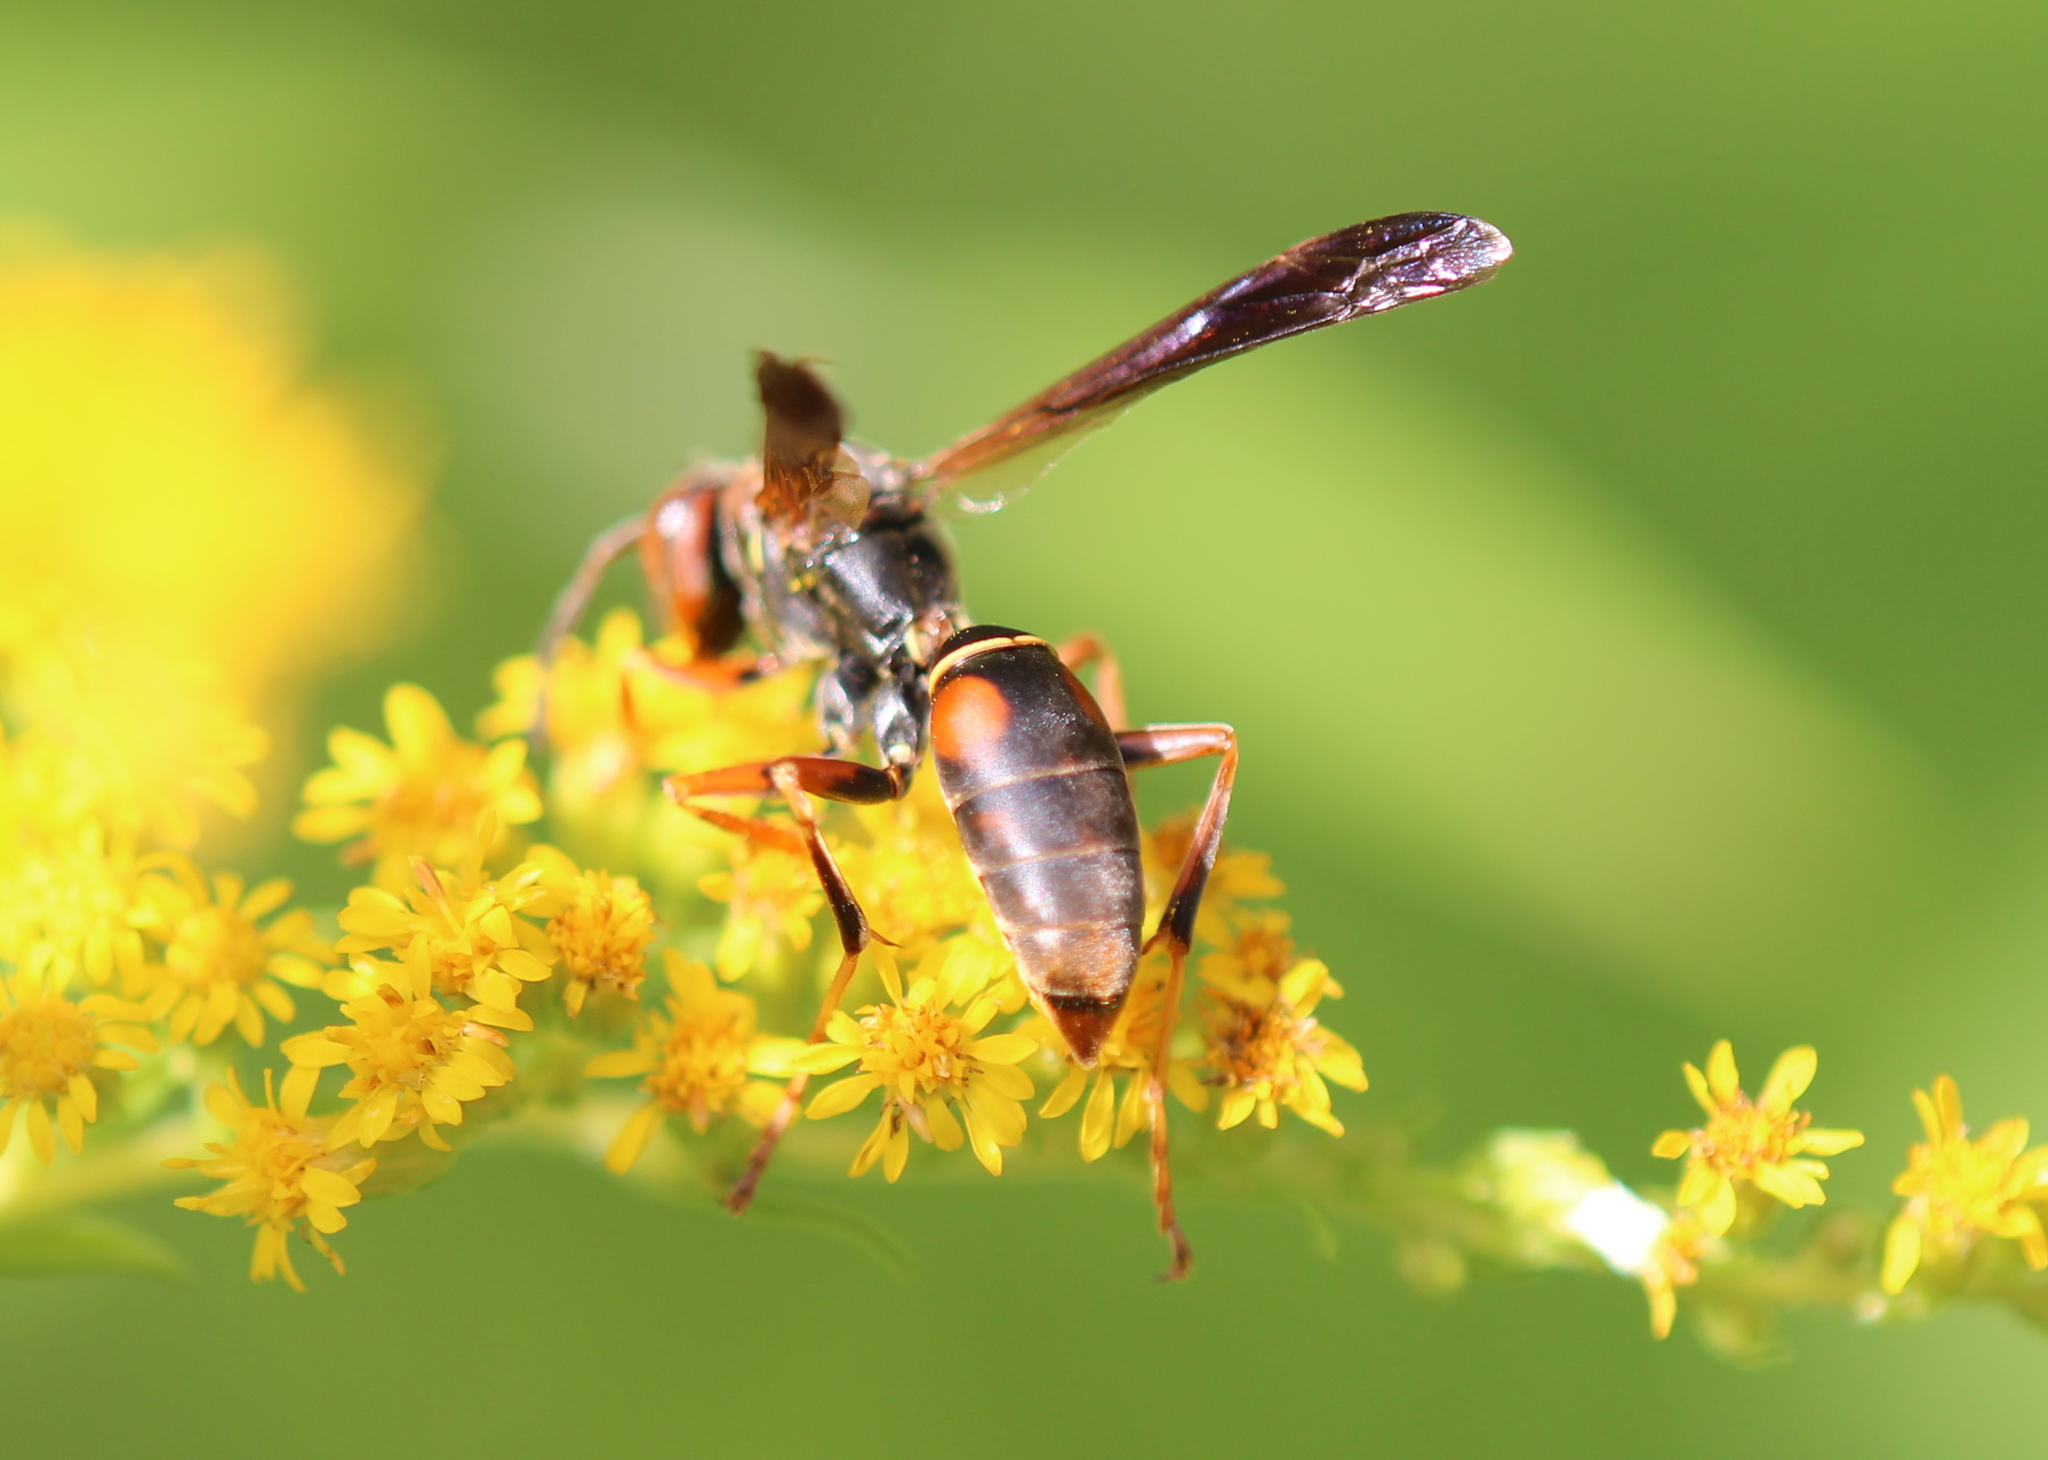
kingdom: Animalia
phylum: Arthropoda
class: Insecta
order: Hymenoptera
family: Eumenidae
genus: Polistes
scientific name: Polistes fuscatus
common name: Dark paper wasp
